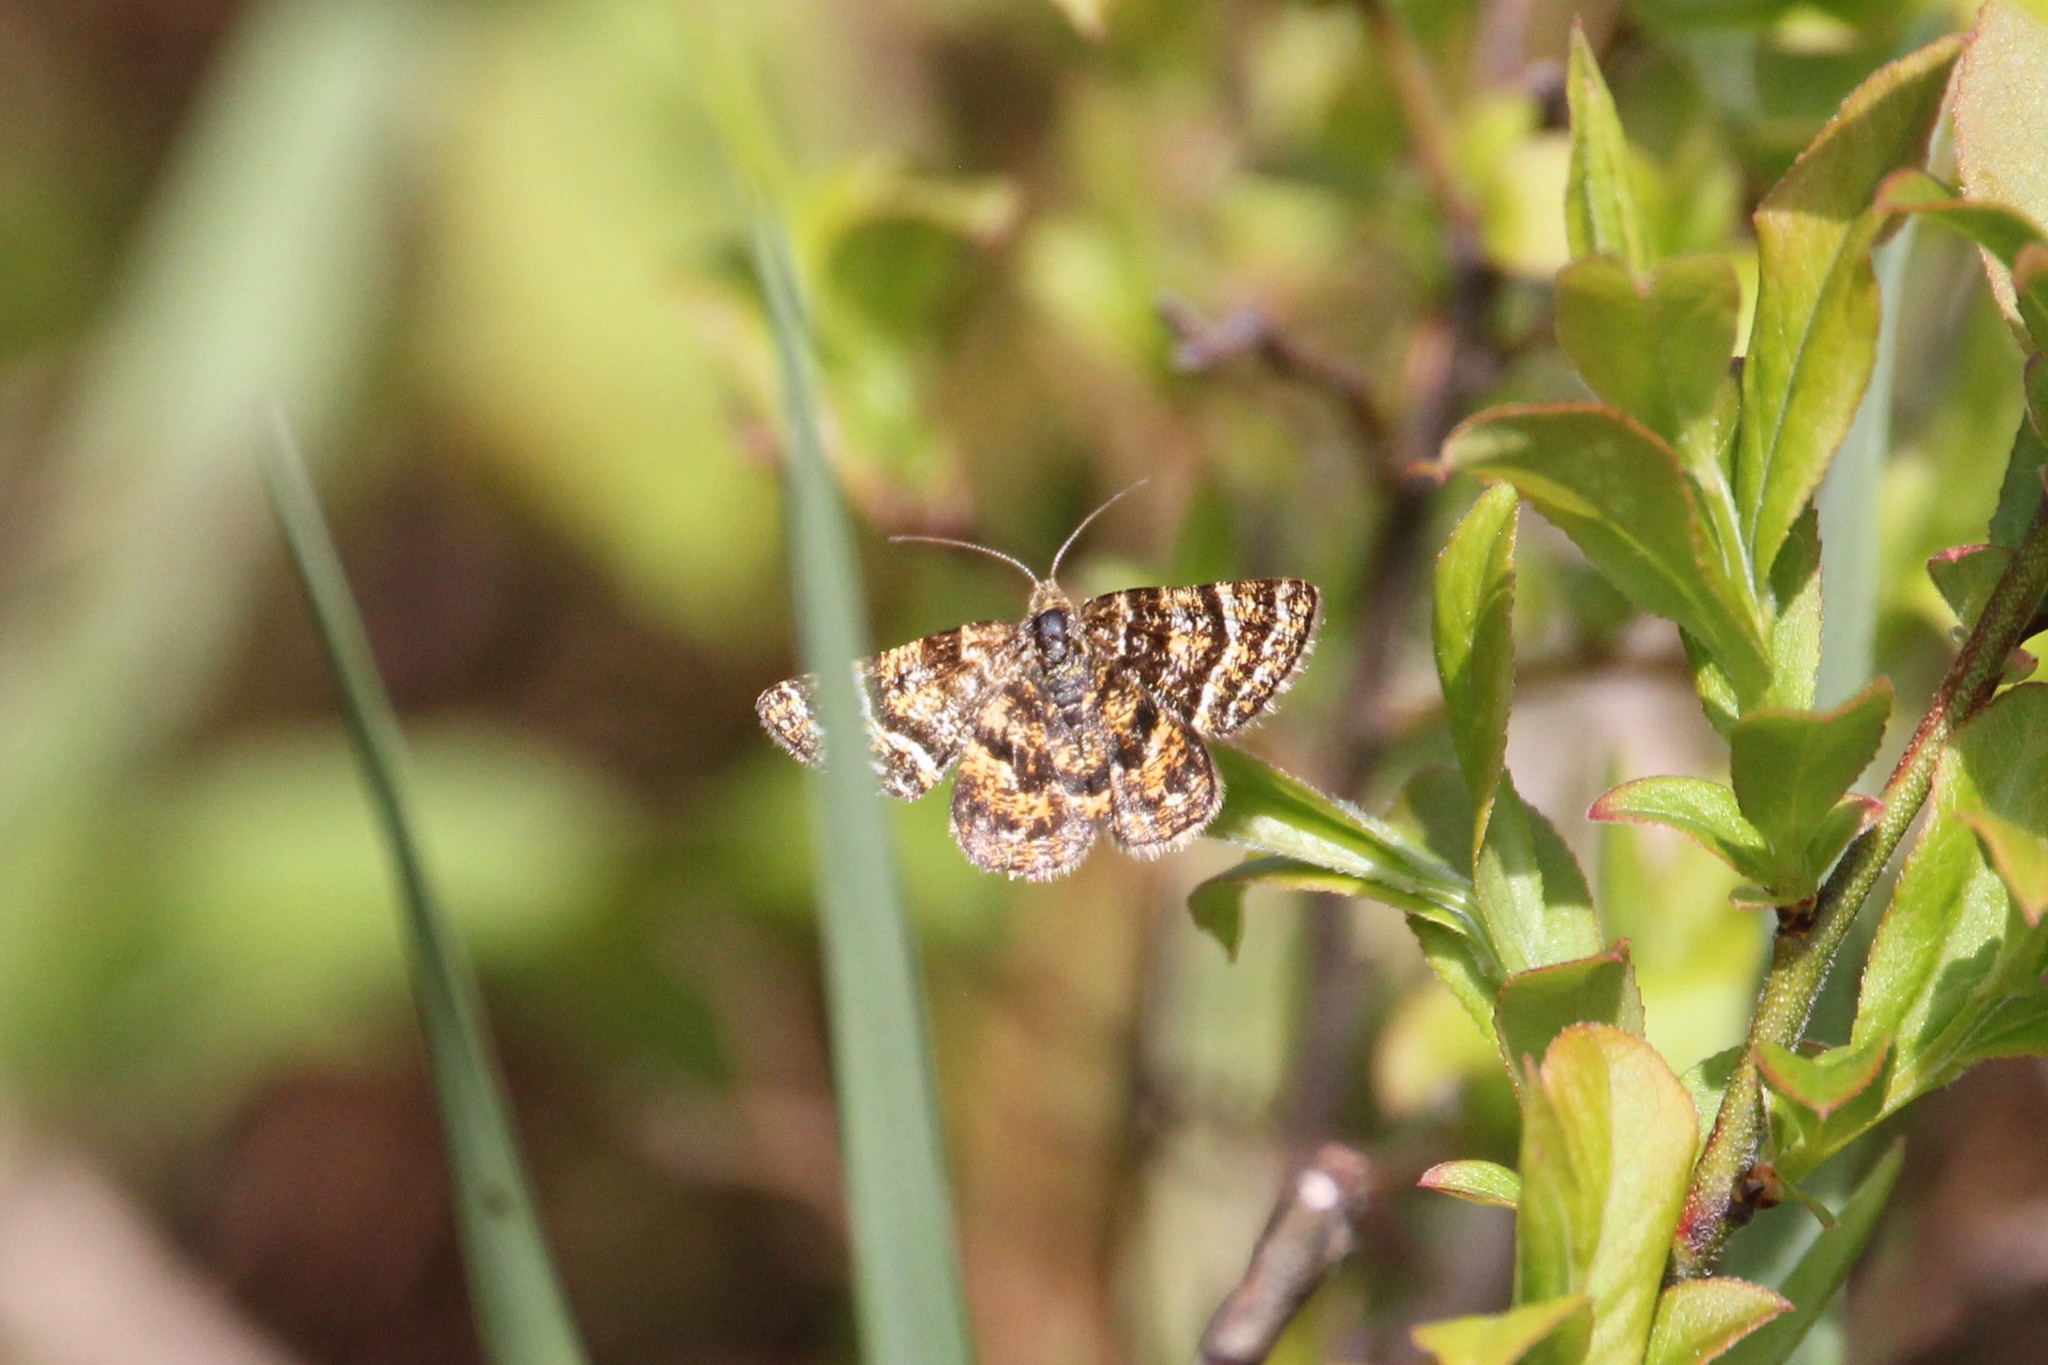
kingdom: Animalia
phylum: Arthropoda
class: Insecta
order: Lepidoptera
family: Geometridae
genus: Macaria
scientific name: Macaria truncataria
